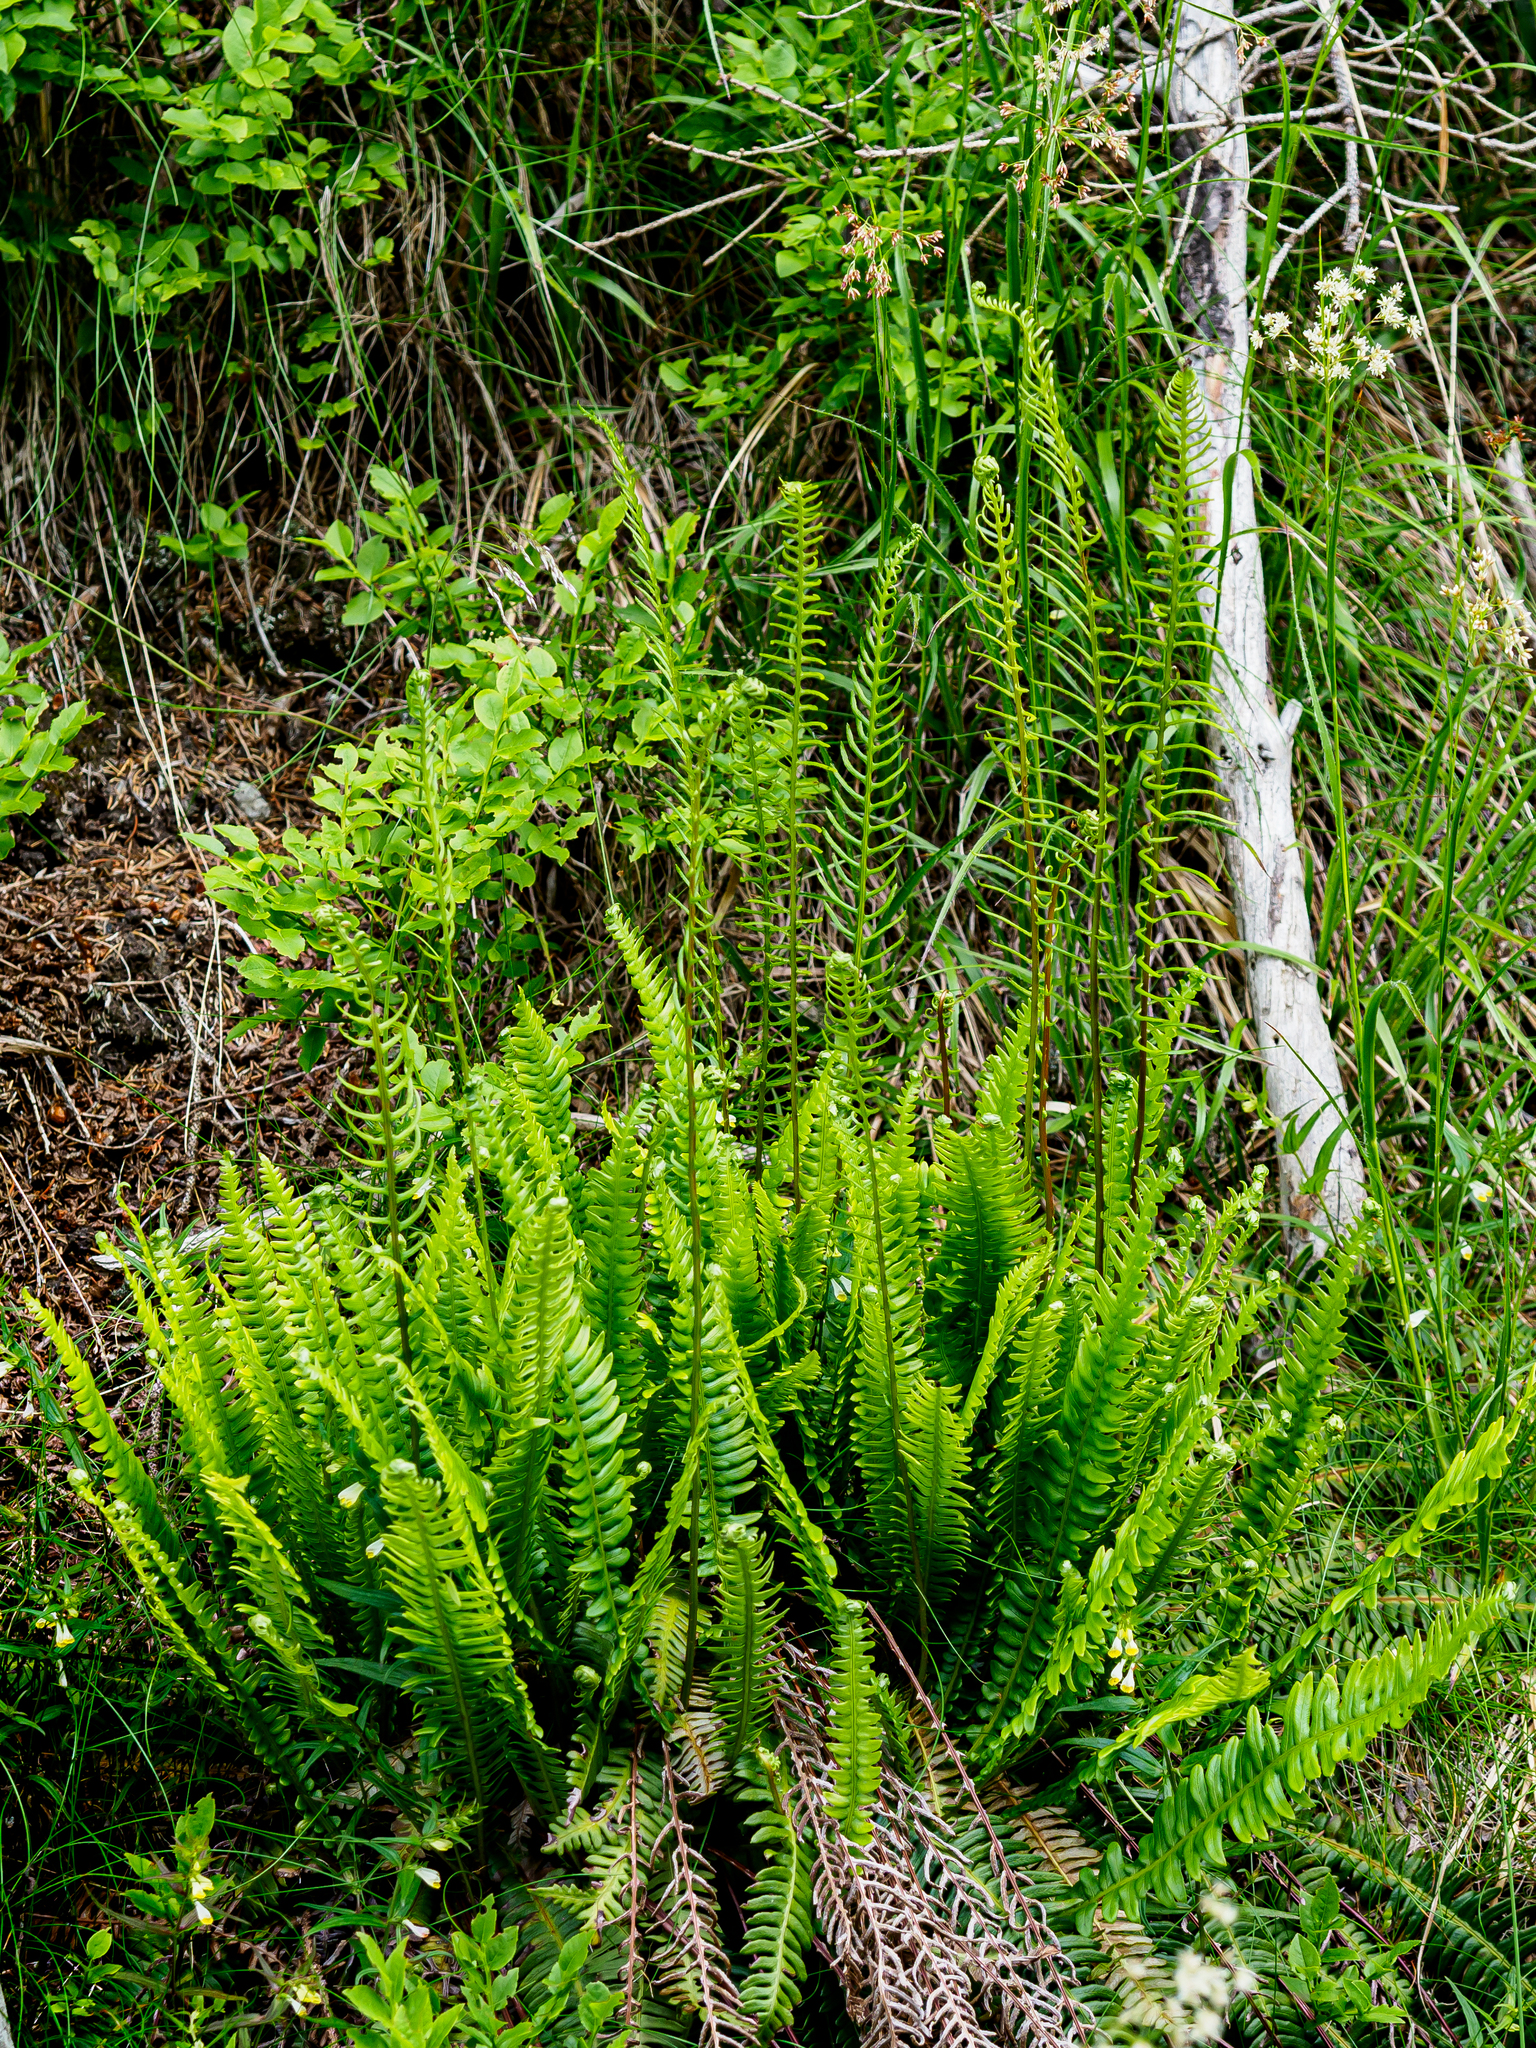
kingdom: Plantae
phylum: Tracheophyta
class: Polypodiopsida
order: Polypodiales
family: Blechnaceae
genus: Struthiopteris
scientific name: Struthiopteris spicant
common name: Deer fern
